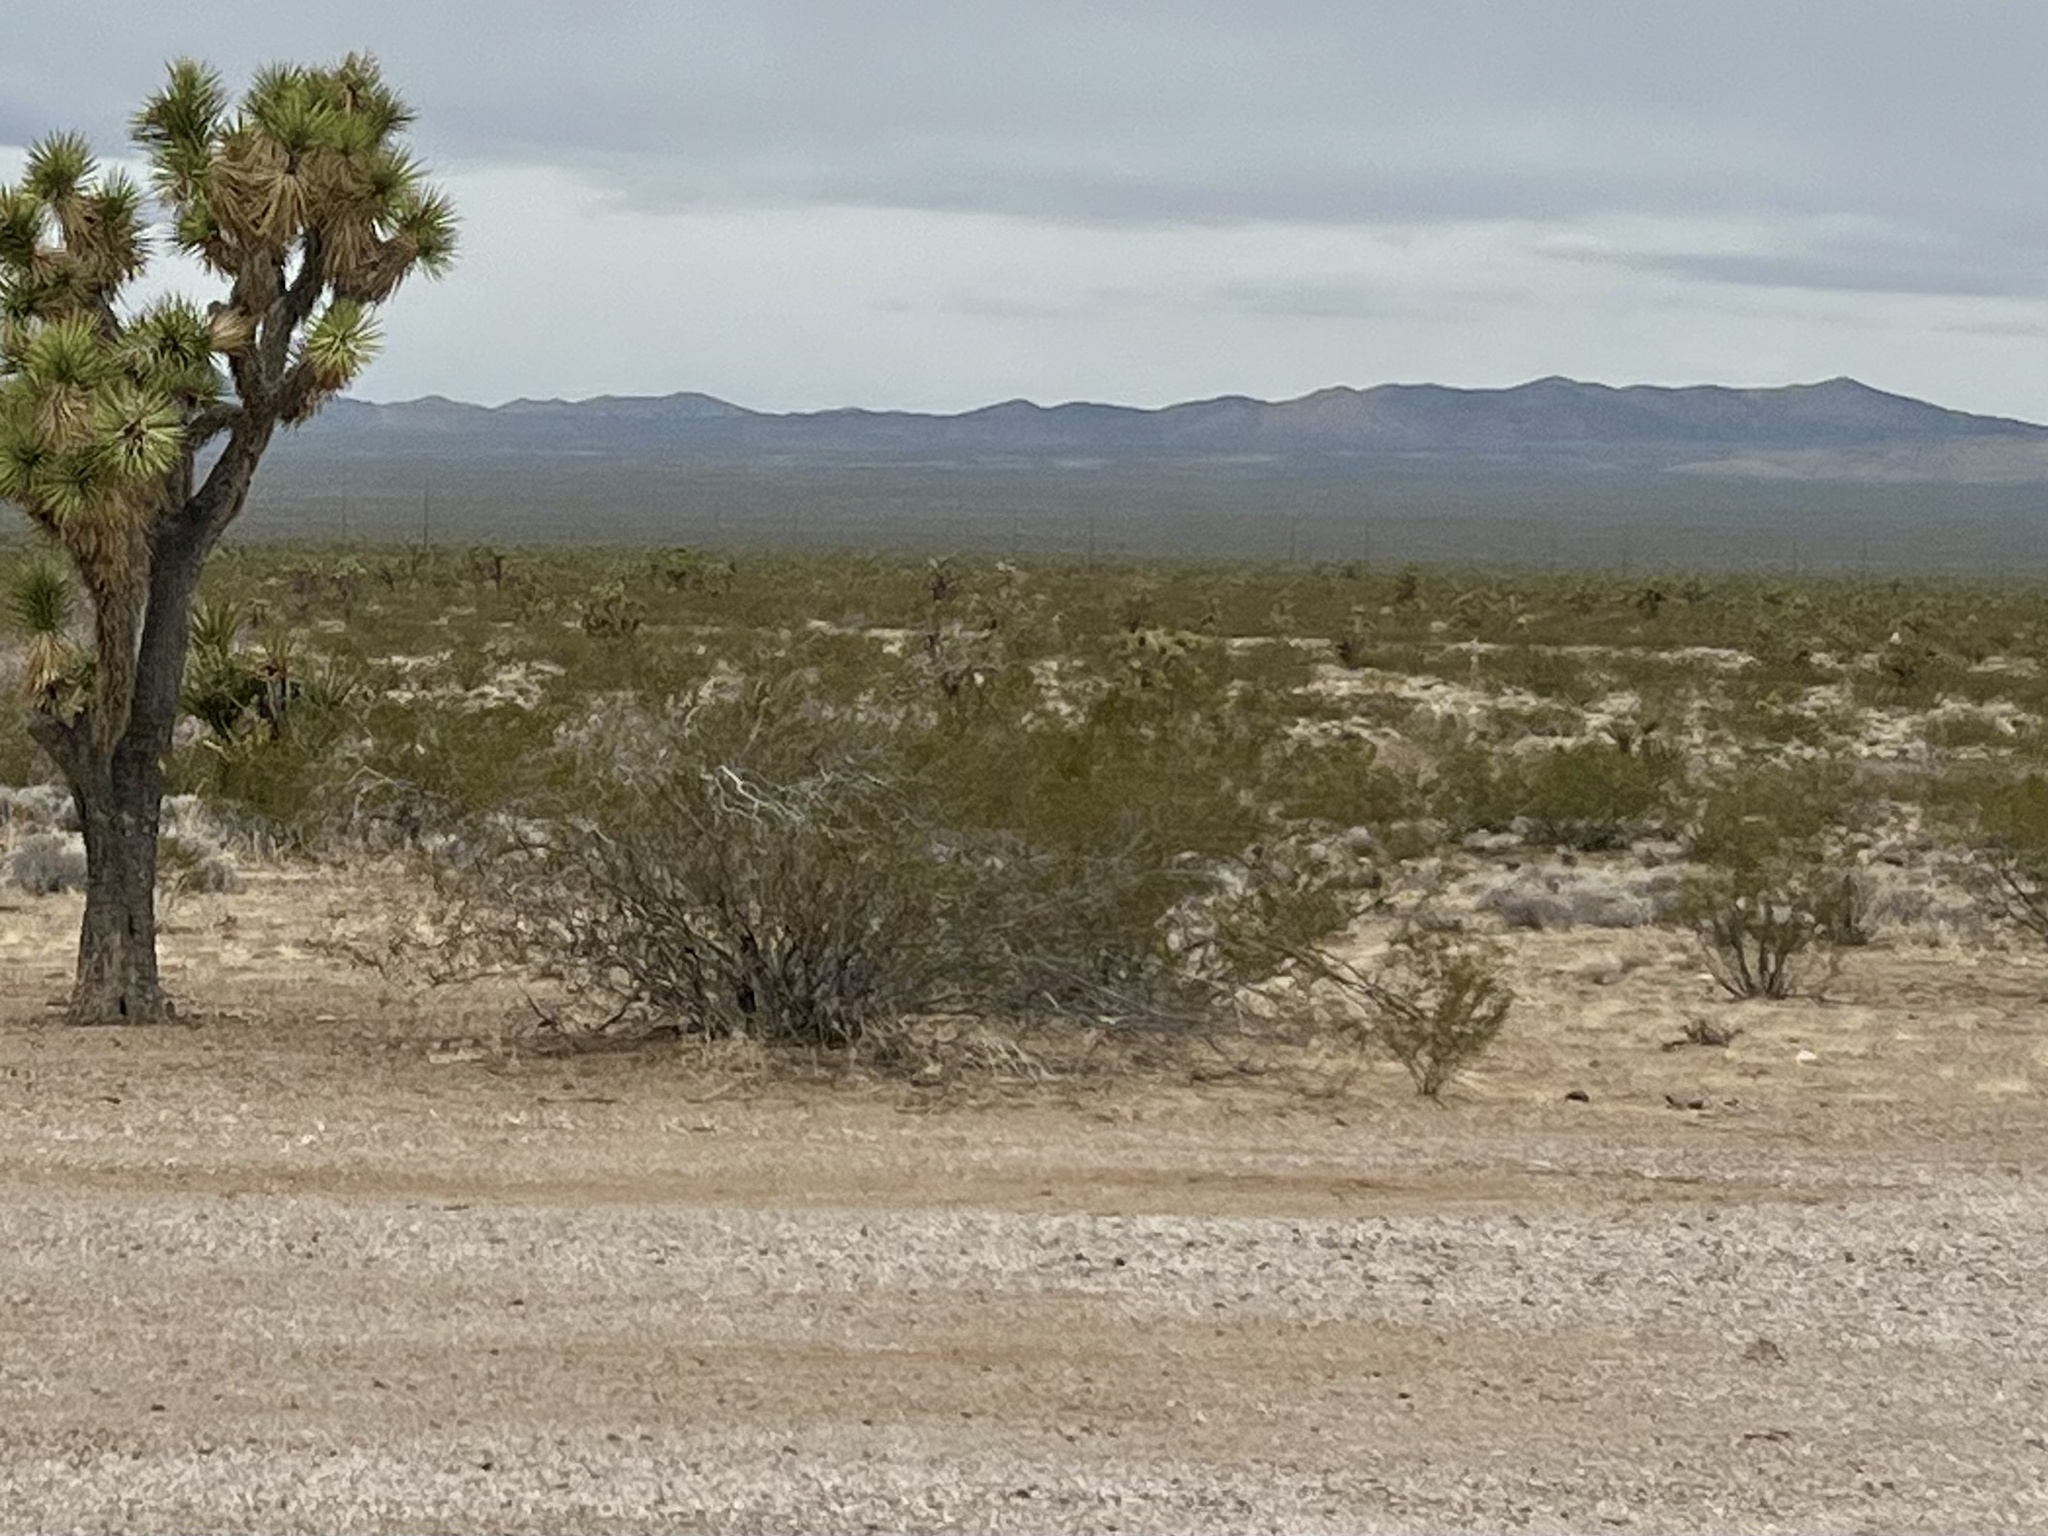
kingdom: Plantae
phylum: Tracheophyta
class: Magnoliopsida
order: Zygophyllales
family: Zygophyllaceae
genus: Larrea
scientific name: Larrea tridentata
